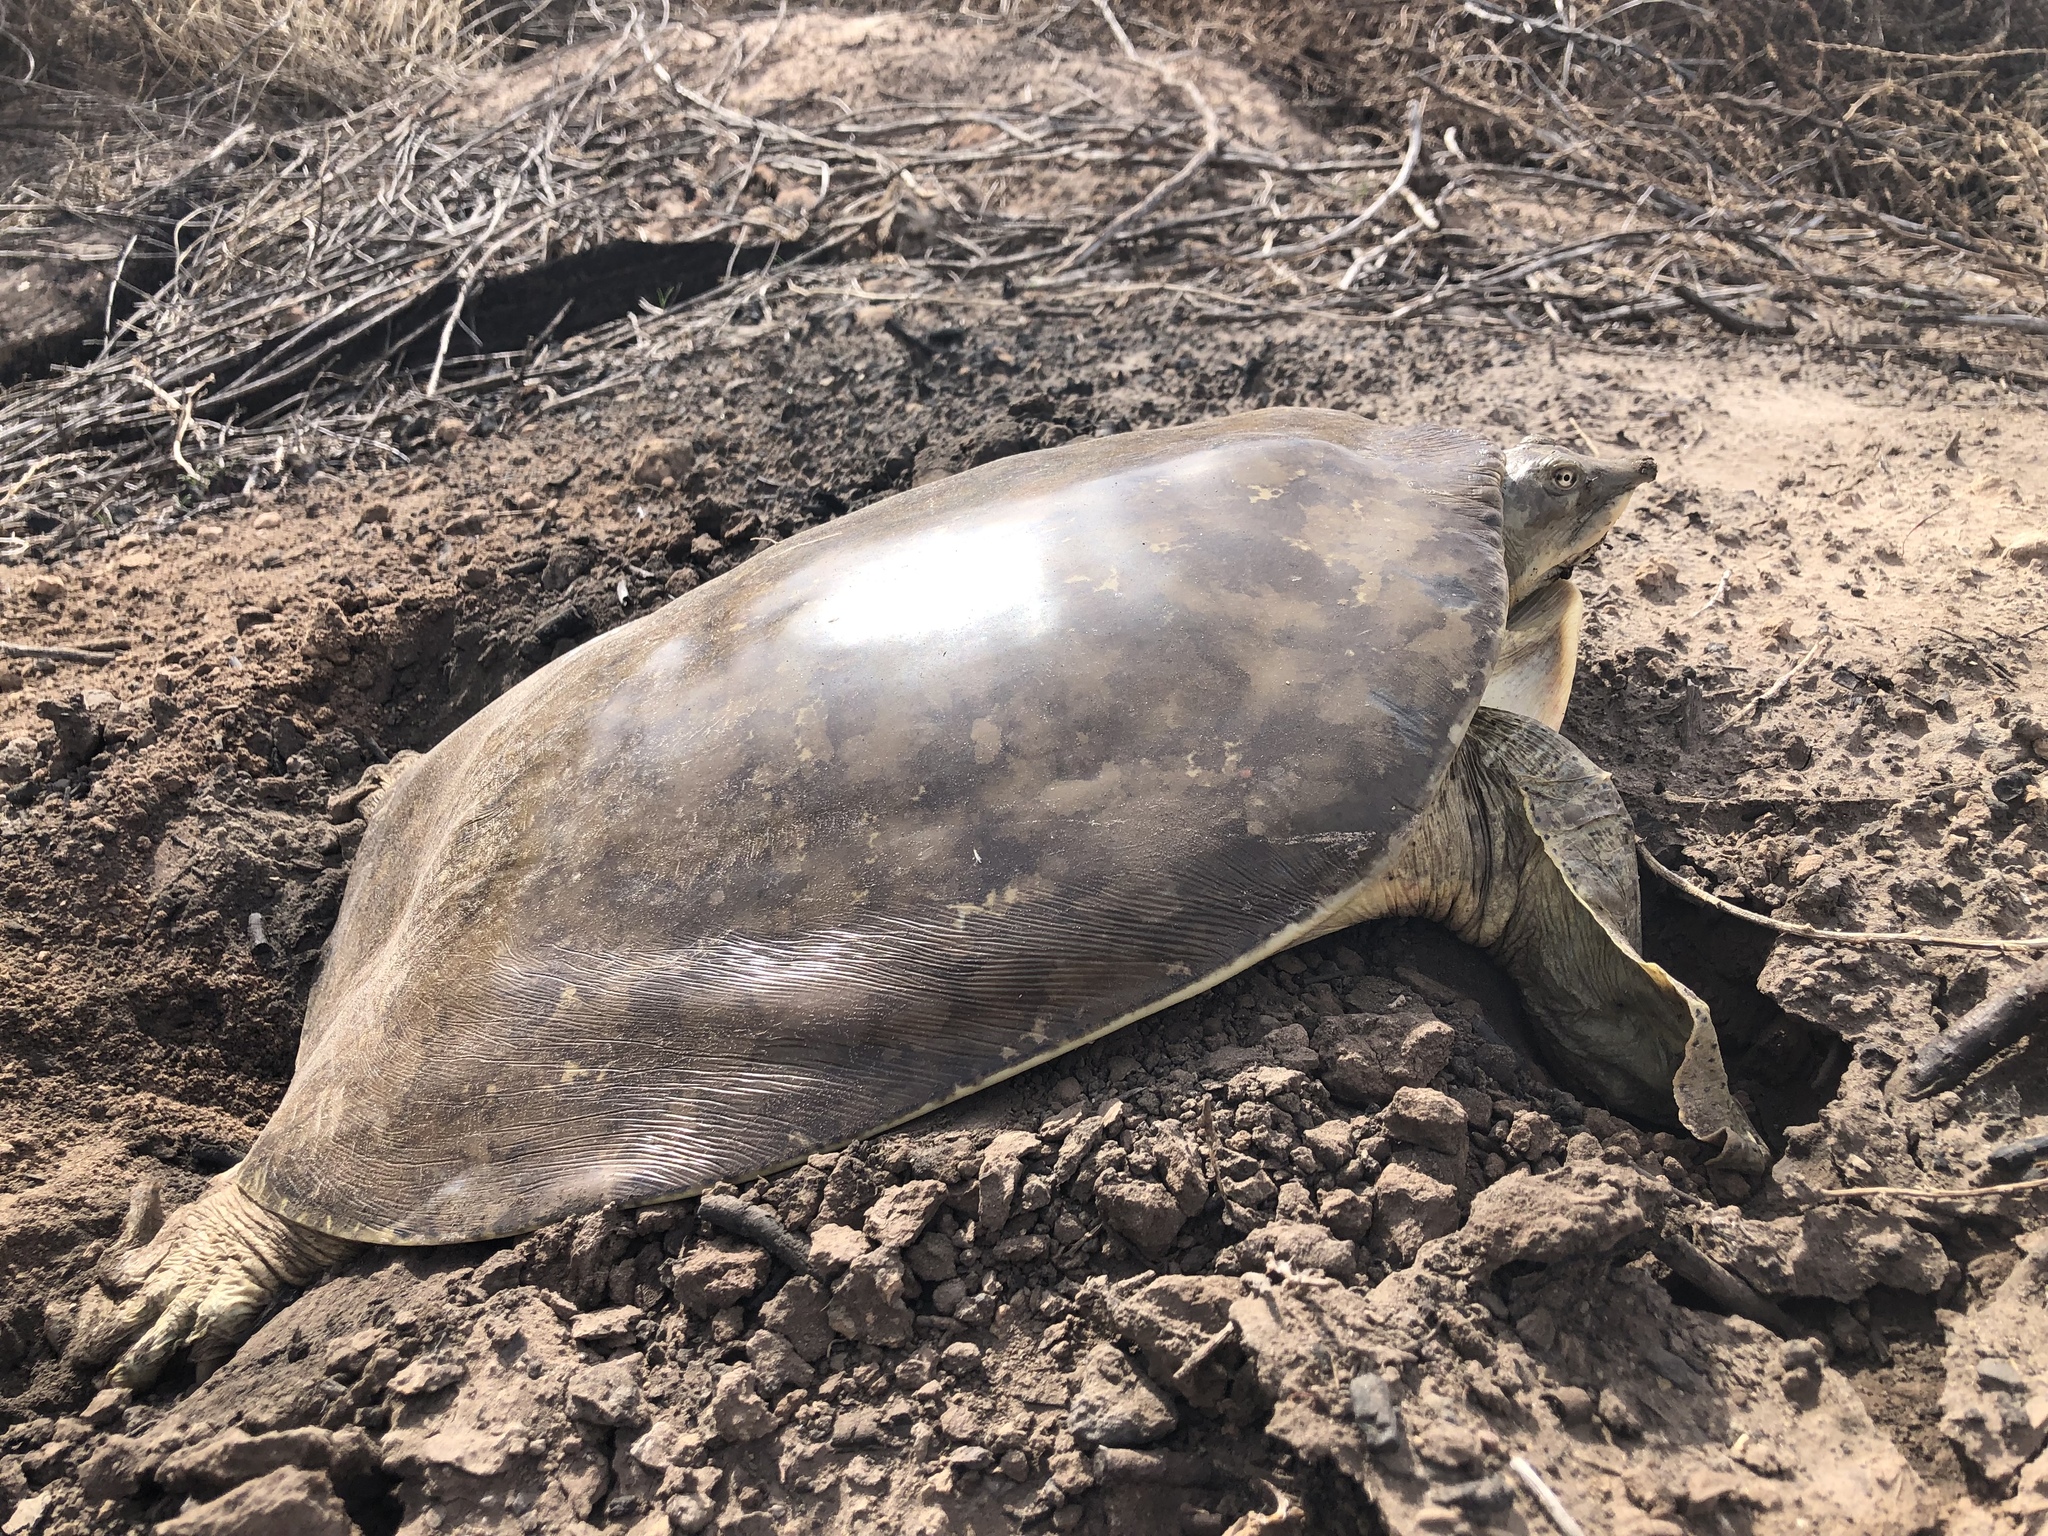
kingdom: Animalia
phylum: Chordata
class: Testudines
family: Trionychidae
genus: Apalone
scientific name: Apalone spinifera
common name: Spiny softshell turtle
